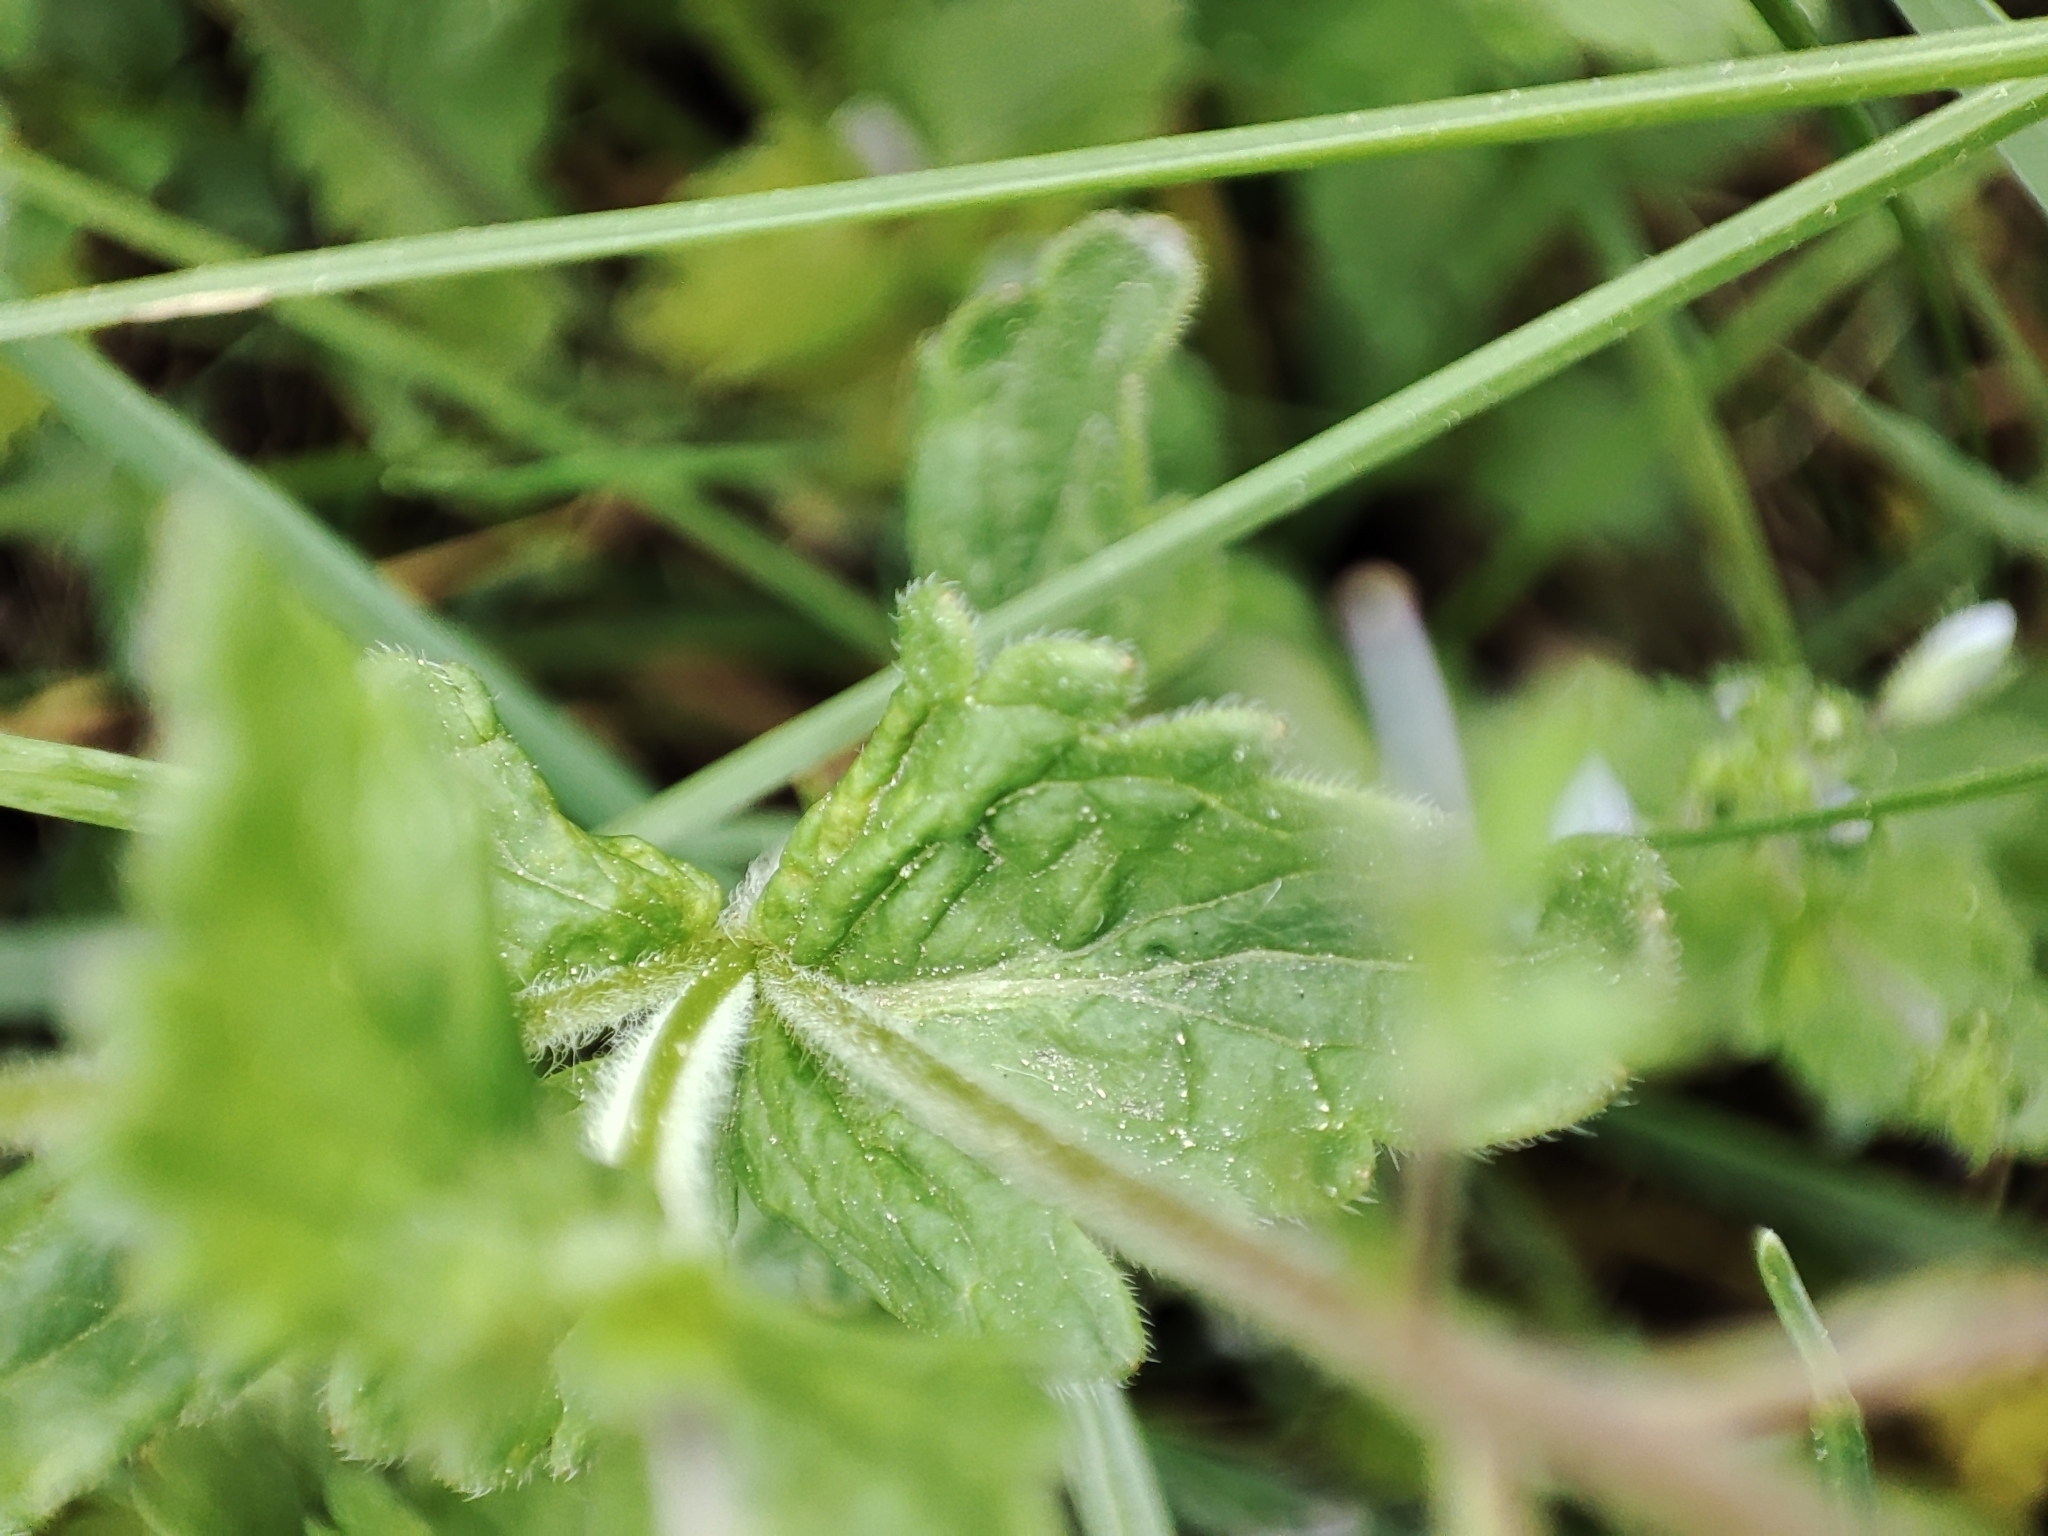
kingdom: Plantae
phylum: Tracheophyta
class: Magnoliopsida
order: Lamiales
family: Plantaginaceae
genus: Veronica
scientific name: Veronica vindobonensis
